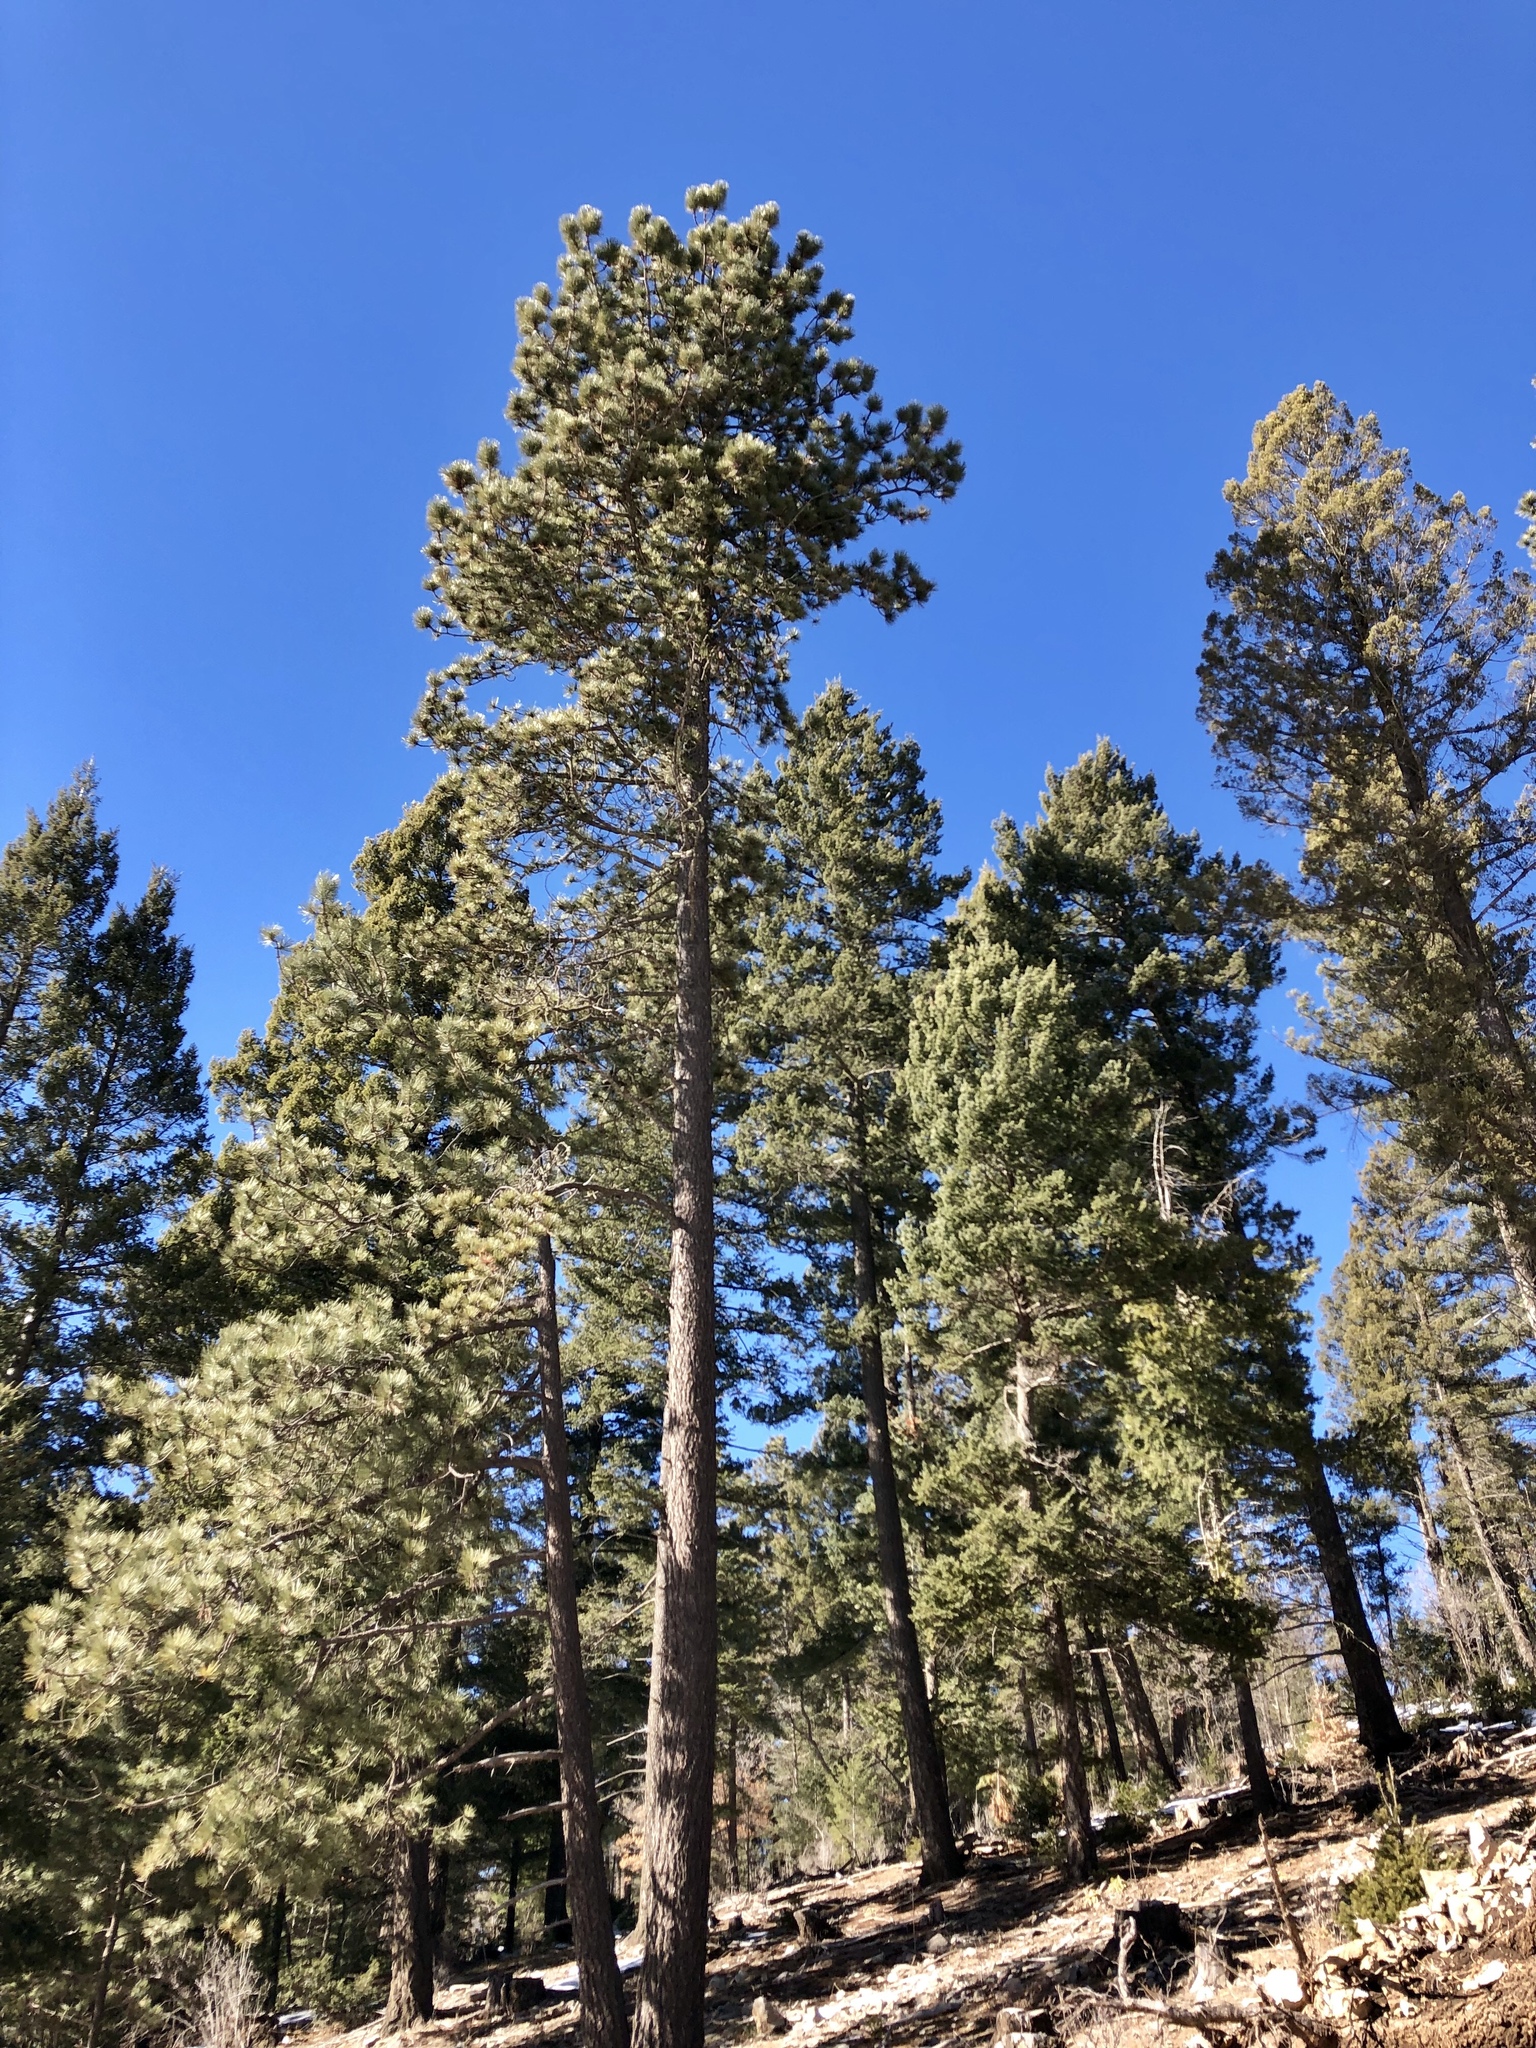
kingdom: Plantae
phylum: Tracheophyta
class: Pinopsida
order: Pinales
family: Pinaceae
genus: Pinus
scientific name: Pinus ponderosa
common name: Western yellow-pine
